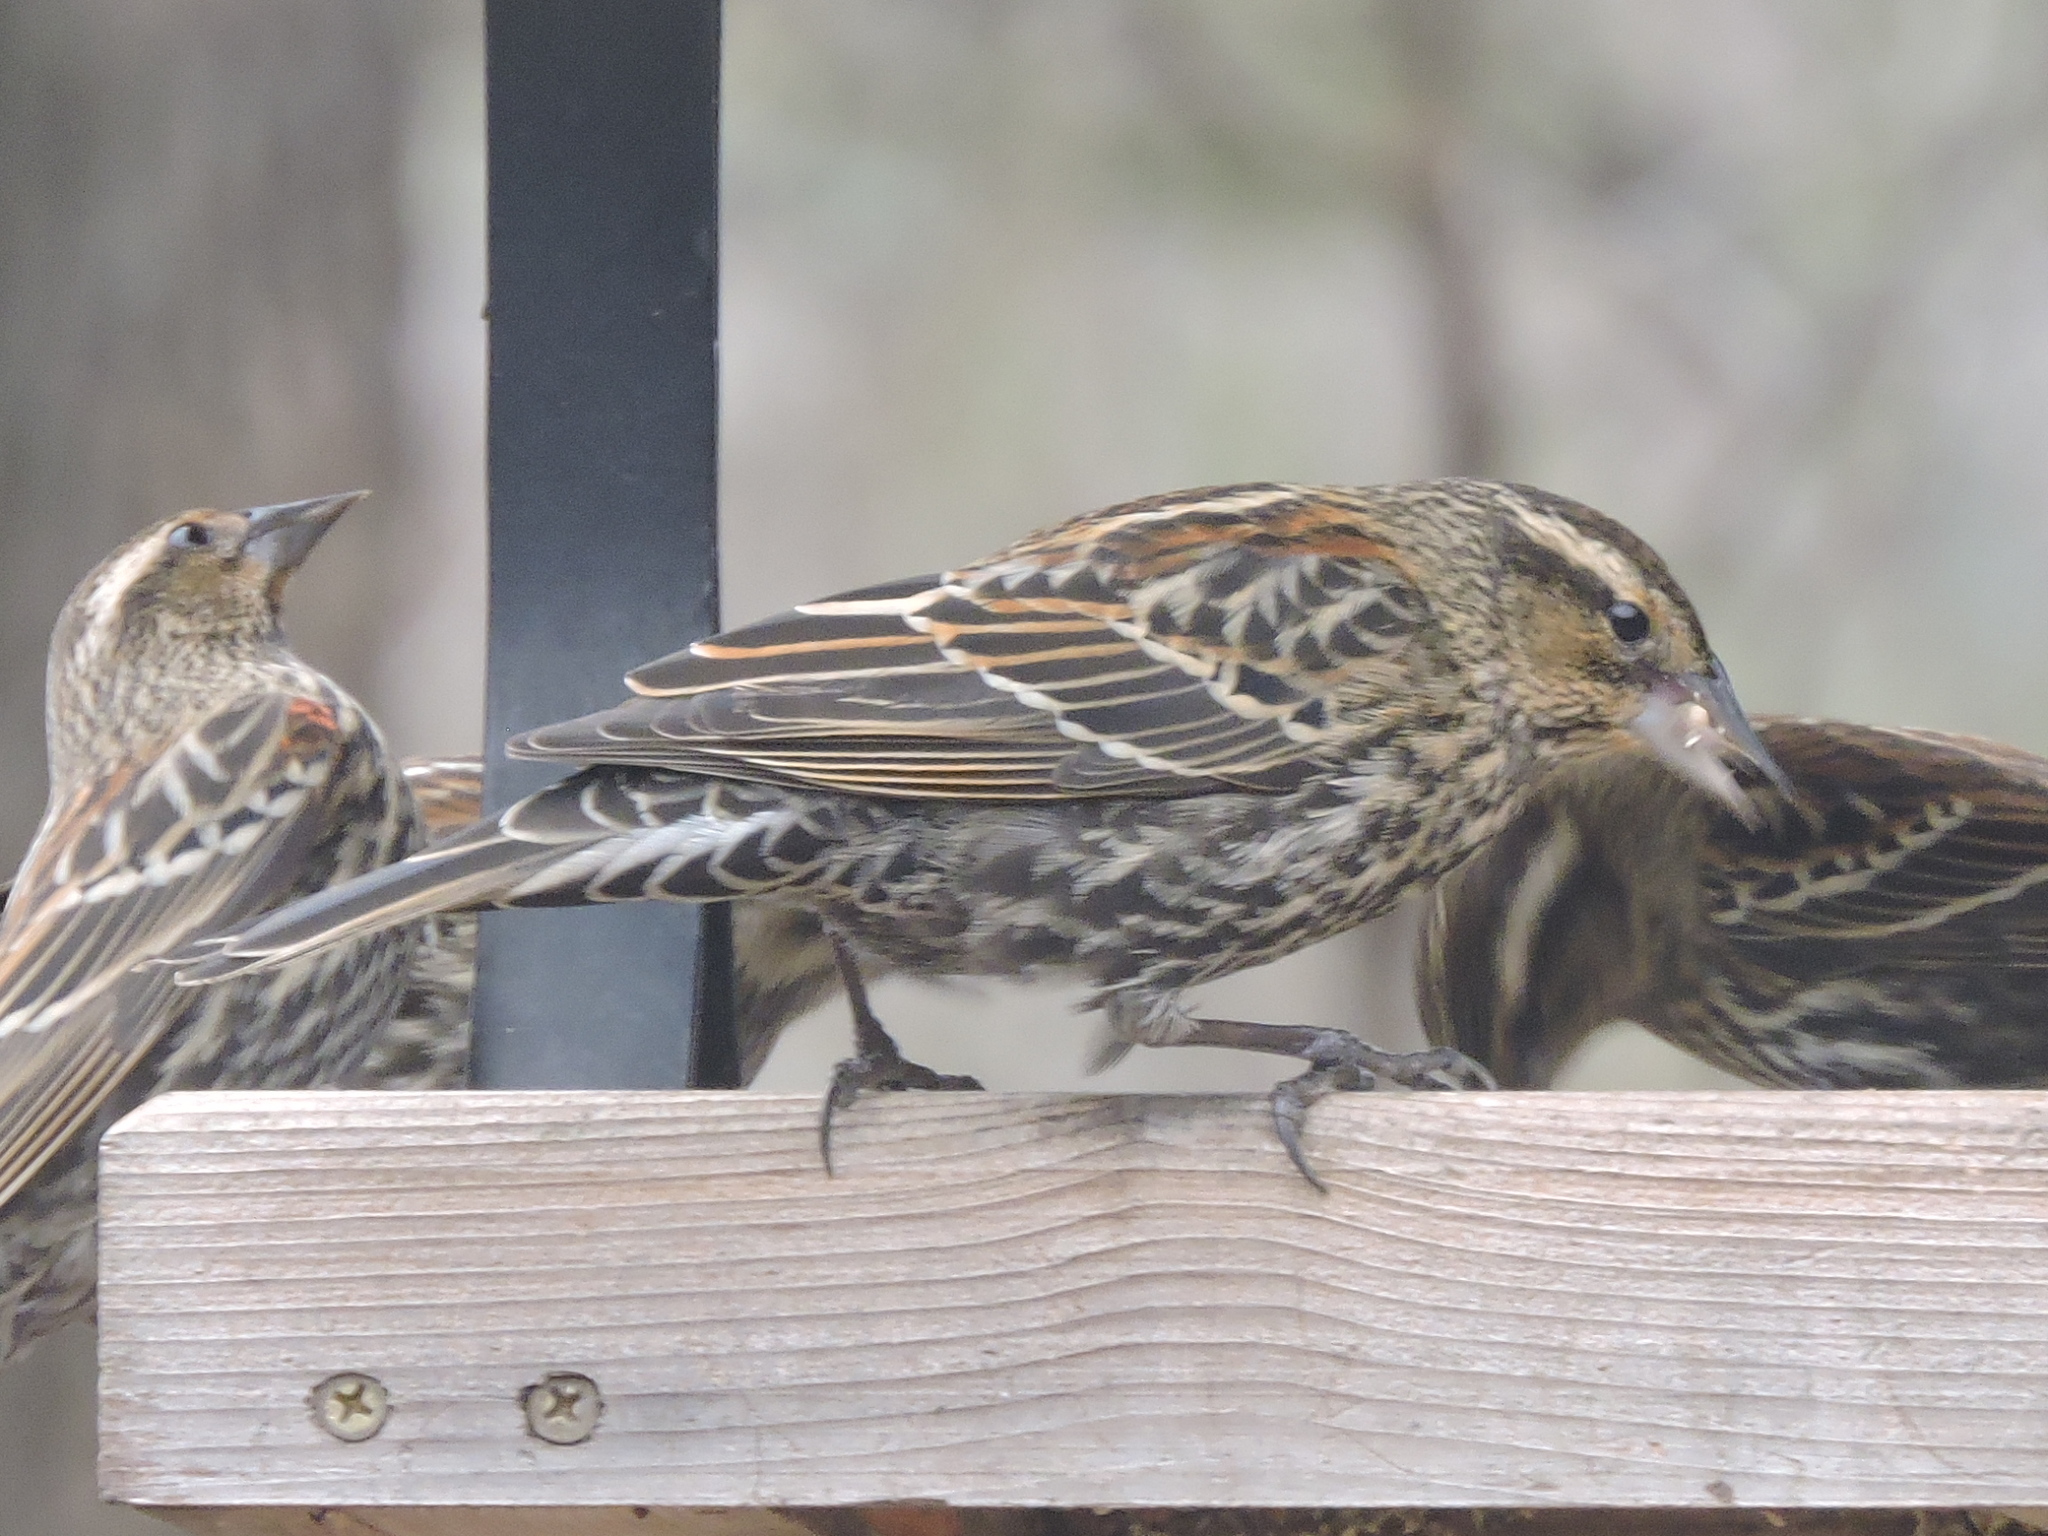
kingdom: Animalia
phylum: Chordata
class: Aves
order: Passeriformes
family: Icteridae
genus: Agelaius
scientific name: Agelaius phoeniceus
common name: Red-winged blackbird
